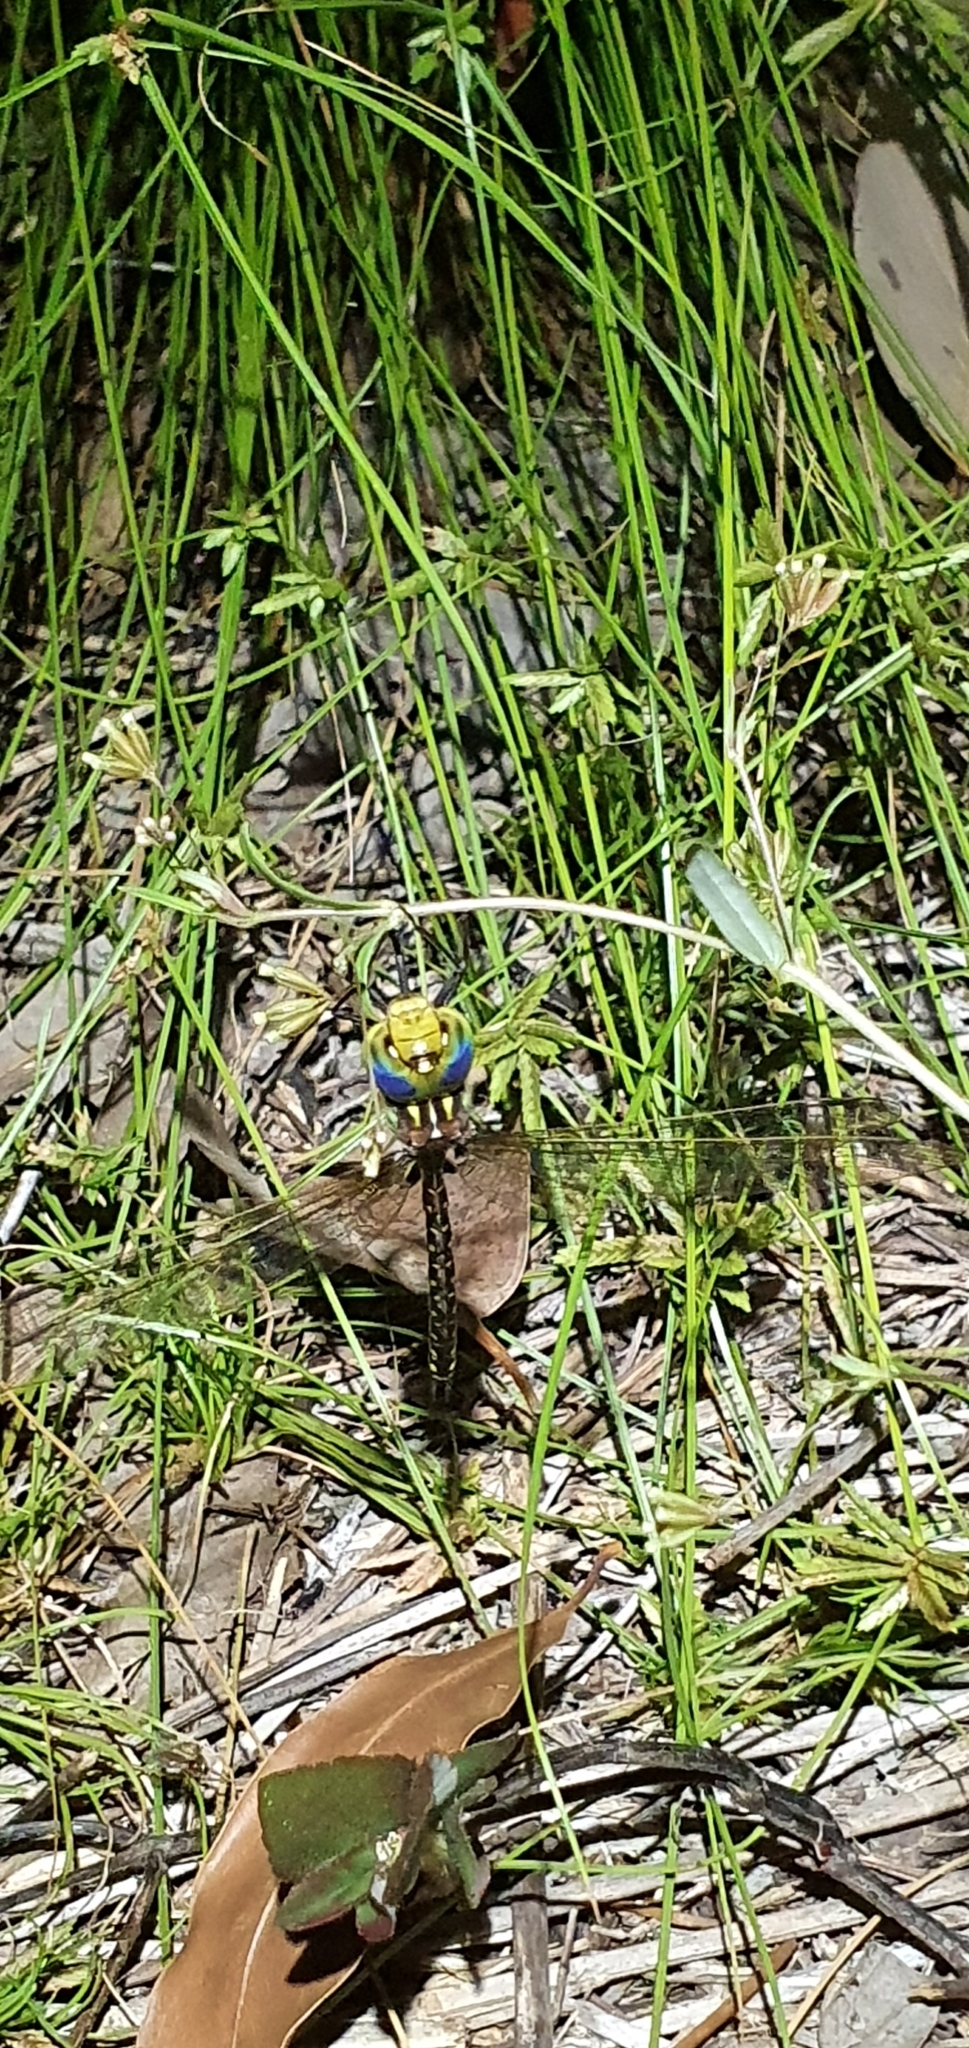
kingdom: Animalia
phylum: Arthropoda
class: Insecta
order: Odonata
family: Aeshnidae
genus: Austrogynacantha
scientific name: Austrogynacantha heterogena
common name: Australian duskhawker
